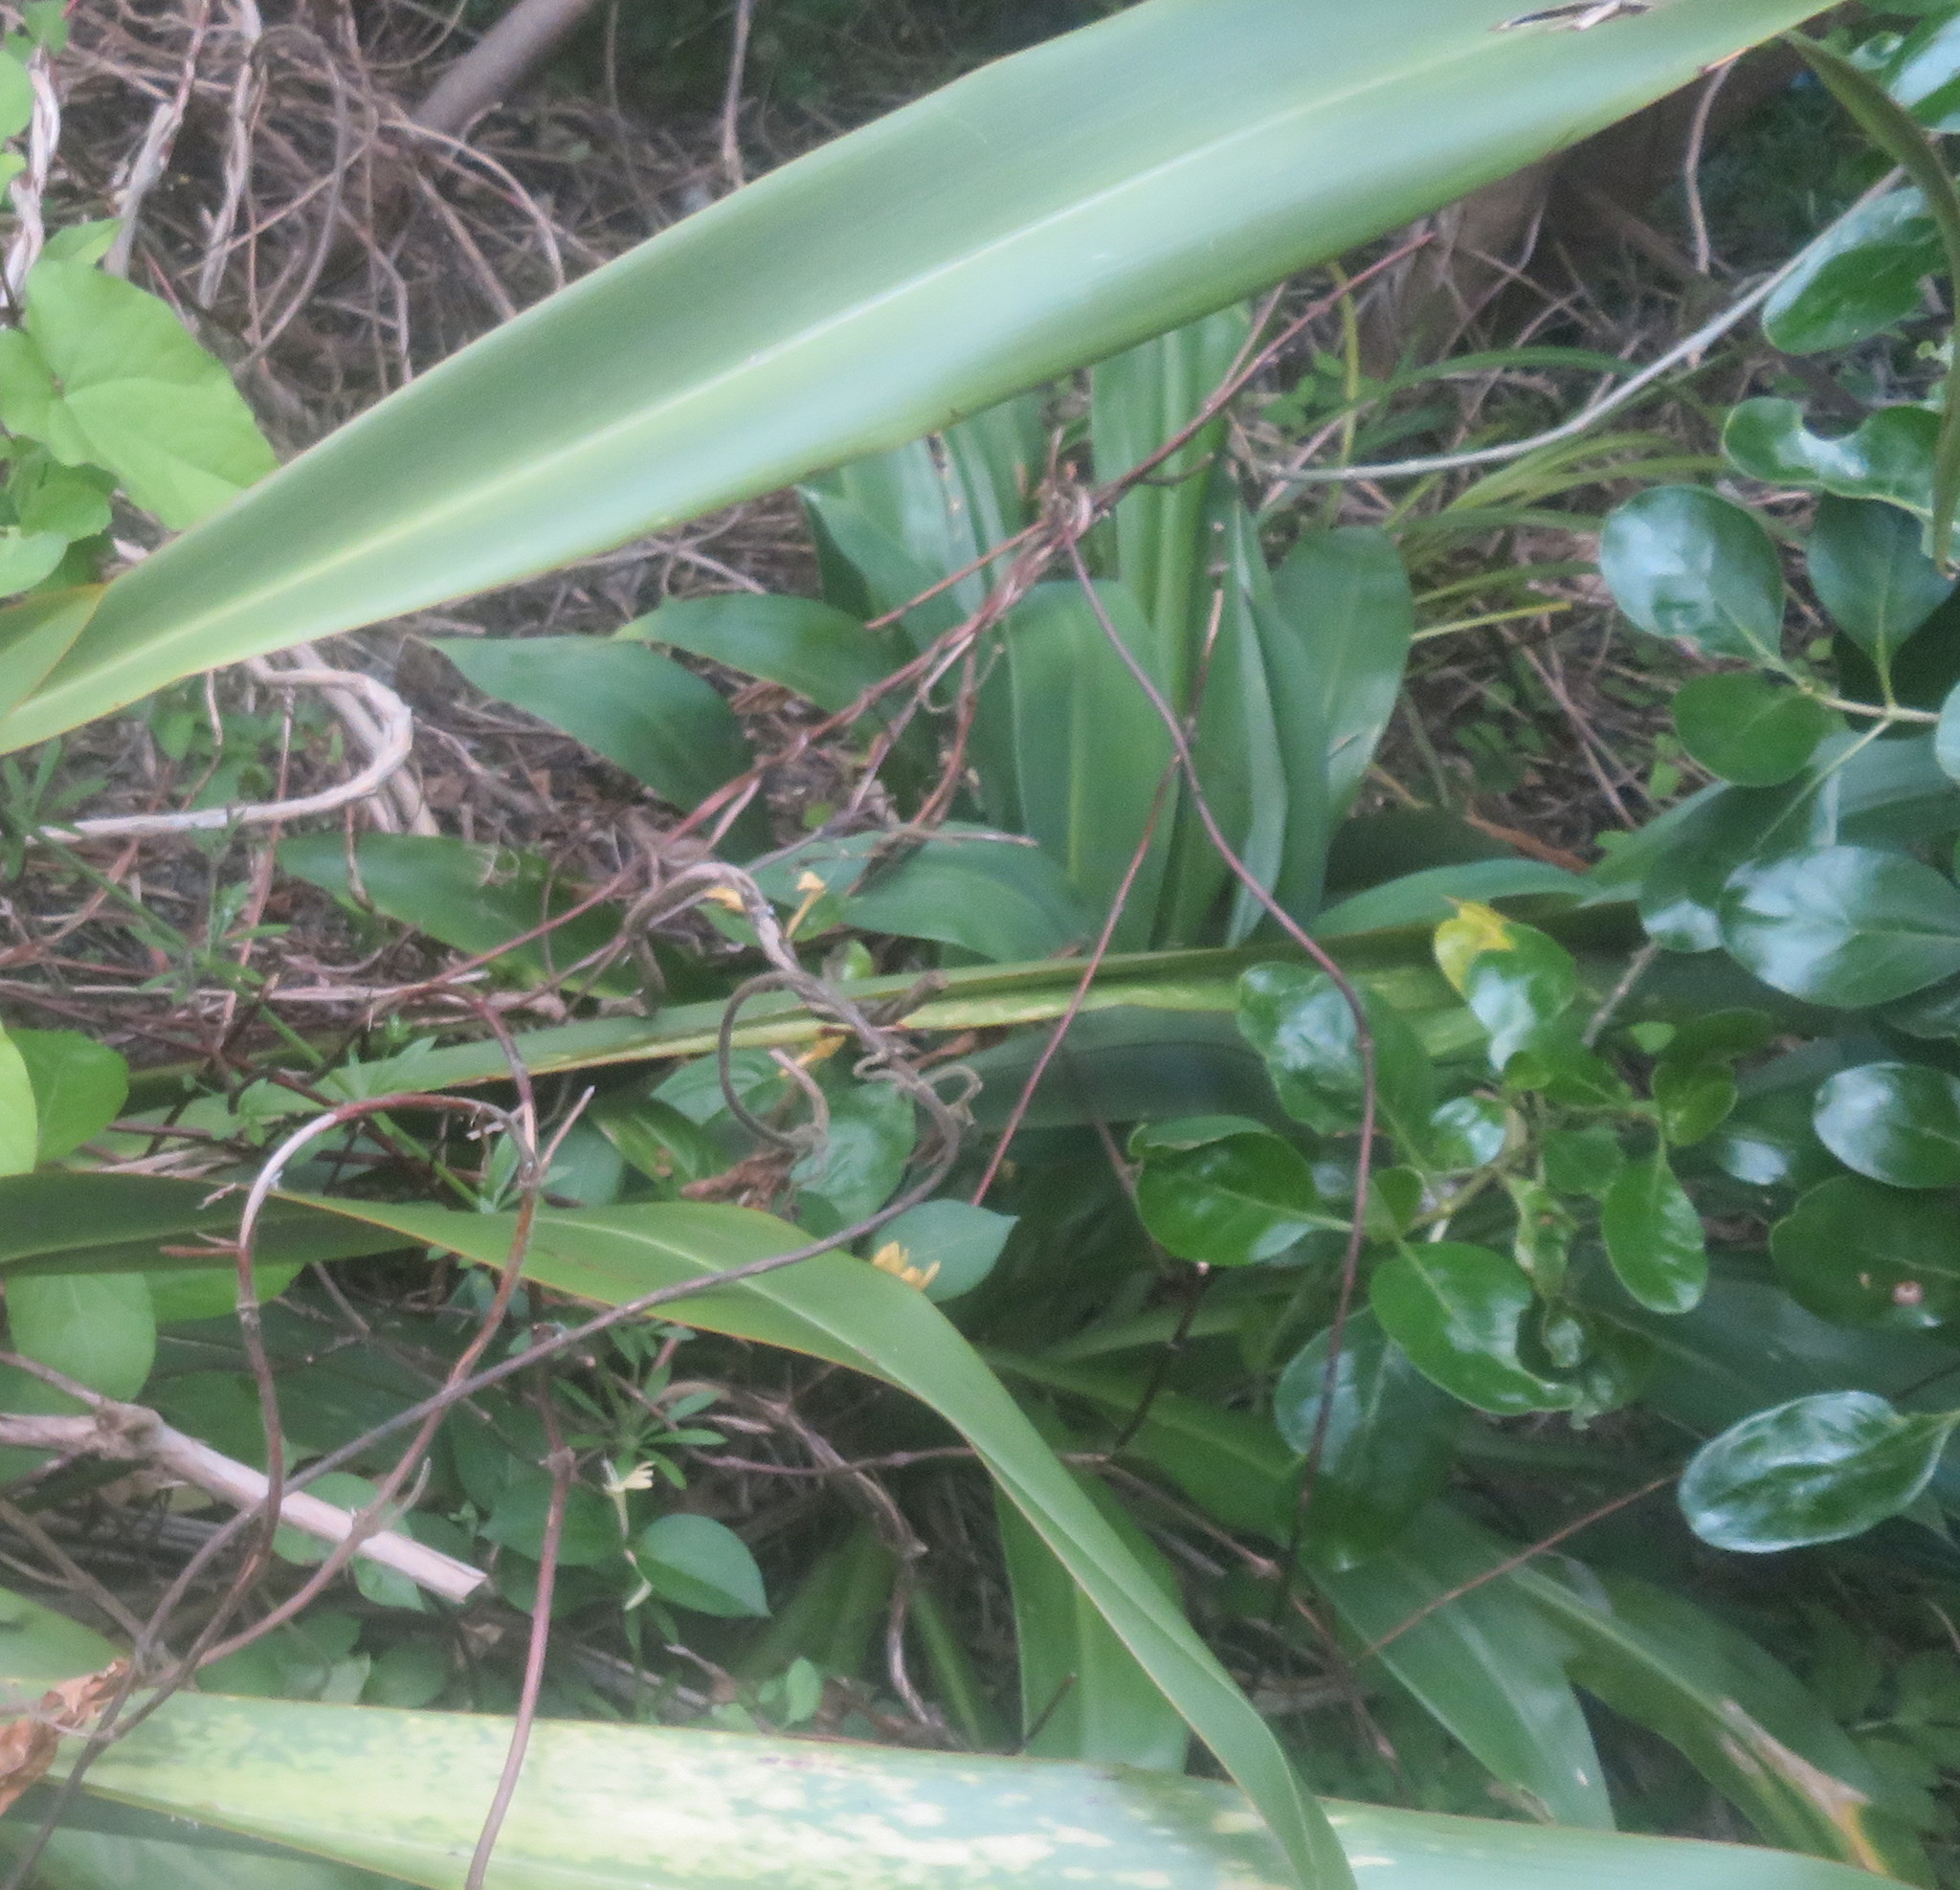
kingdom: Plantae
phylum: Tracheophyta
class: Magnoliopsida
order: Dipsacales
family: Caprifoliaceae
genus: Lonicera
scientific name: Lonicera japonica
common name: Japanese honeysuckle
